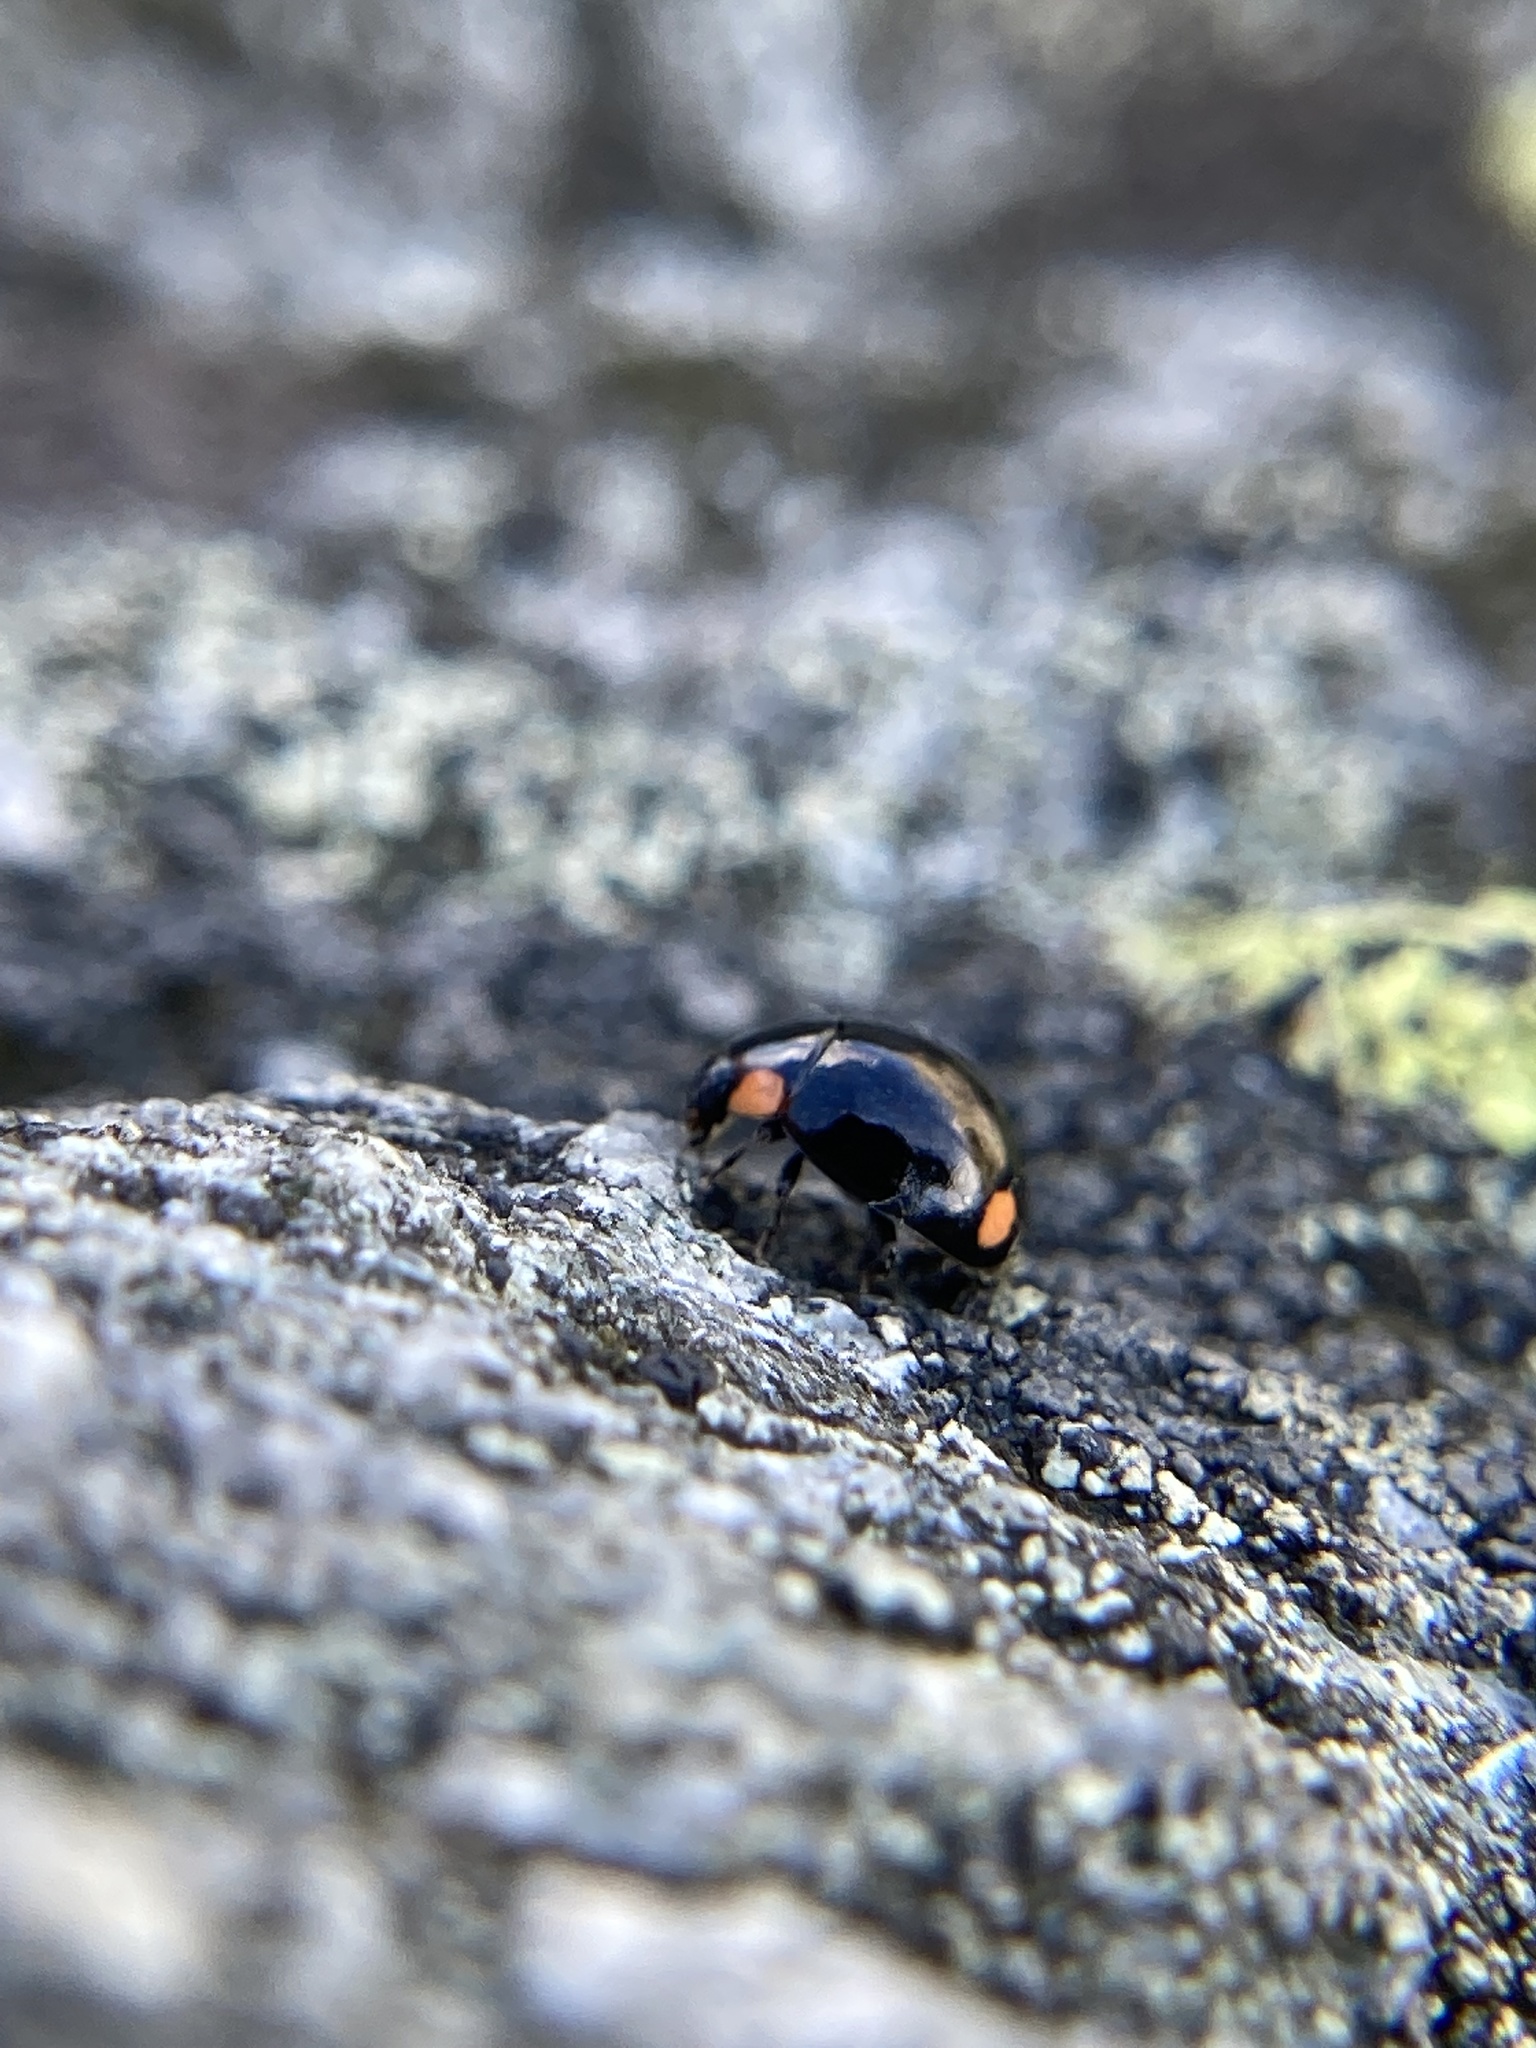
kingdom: Animalia
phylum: Arthropoda
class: Insecta
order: Coleoptera
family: Coccinellidae
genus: Hyperaspis
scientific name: Hyperaspis bigeminata
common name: Bigeminate sigil lady beetle
